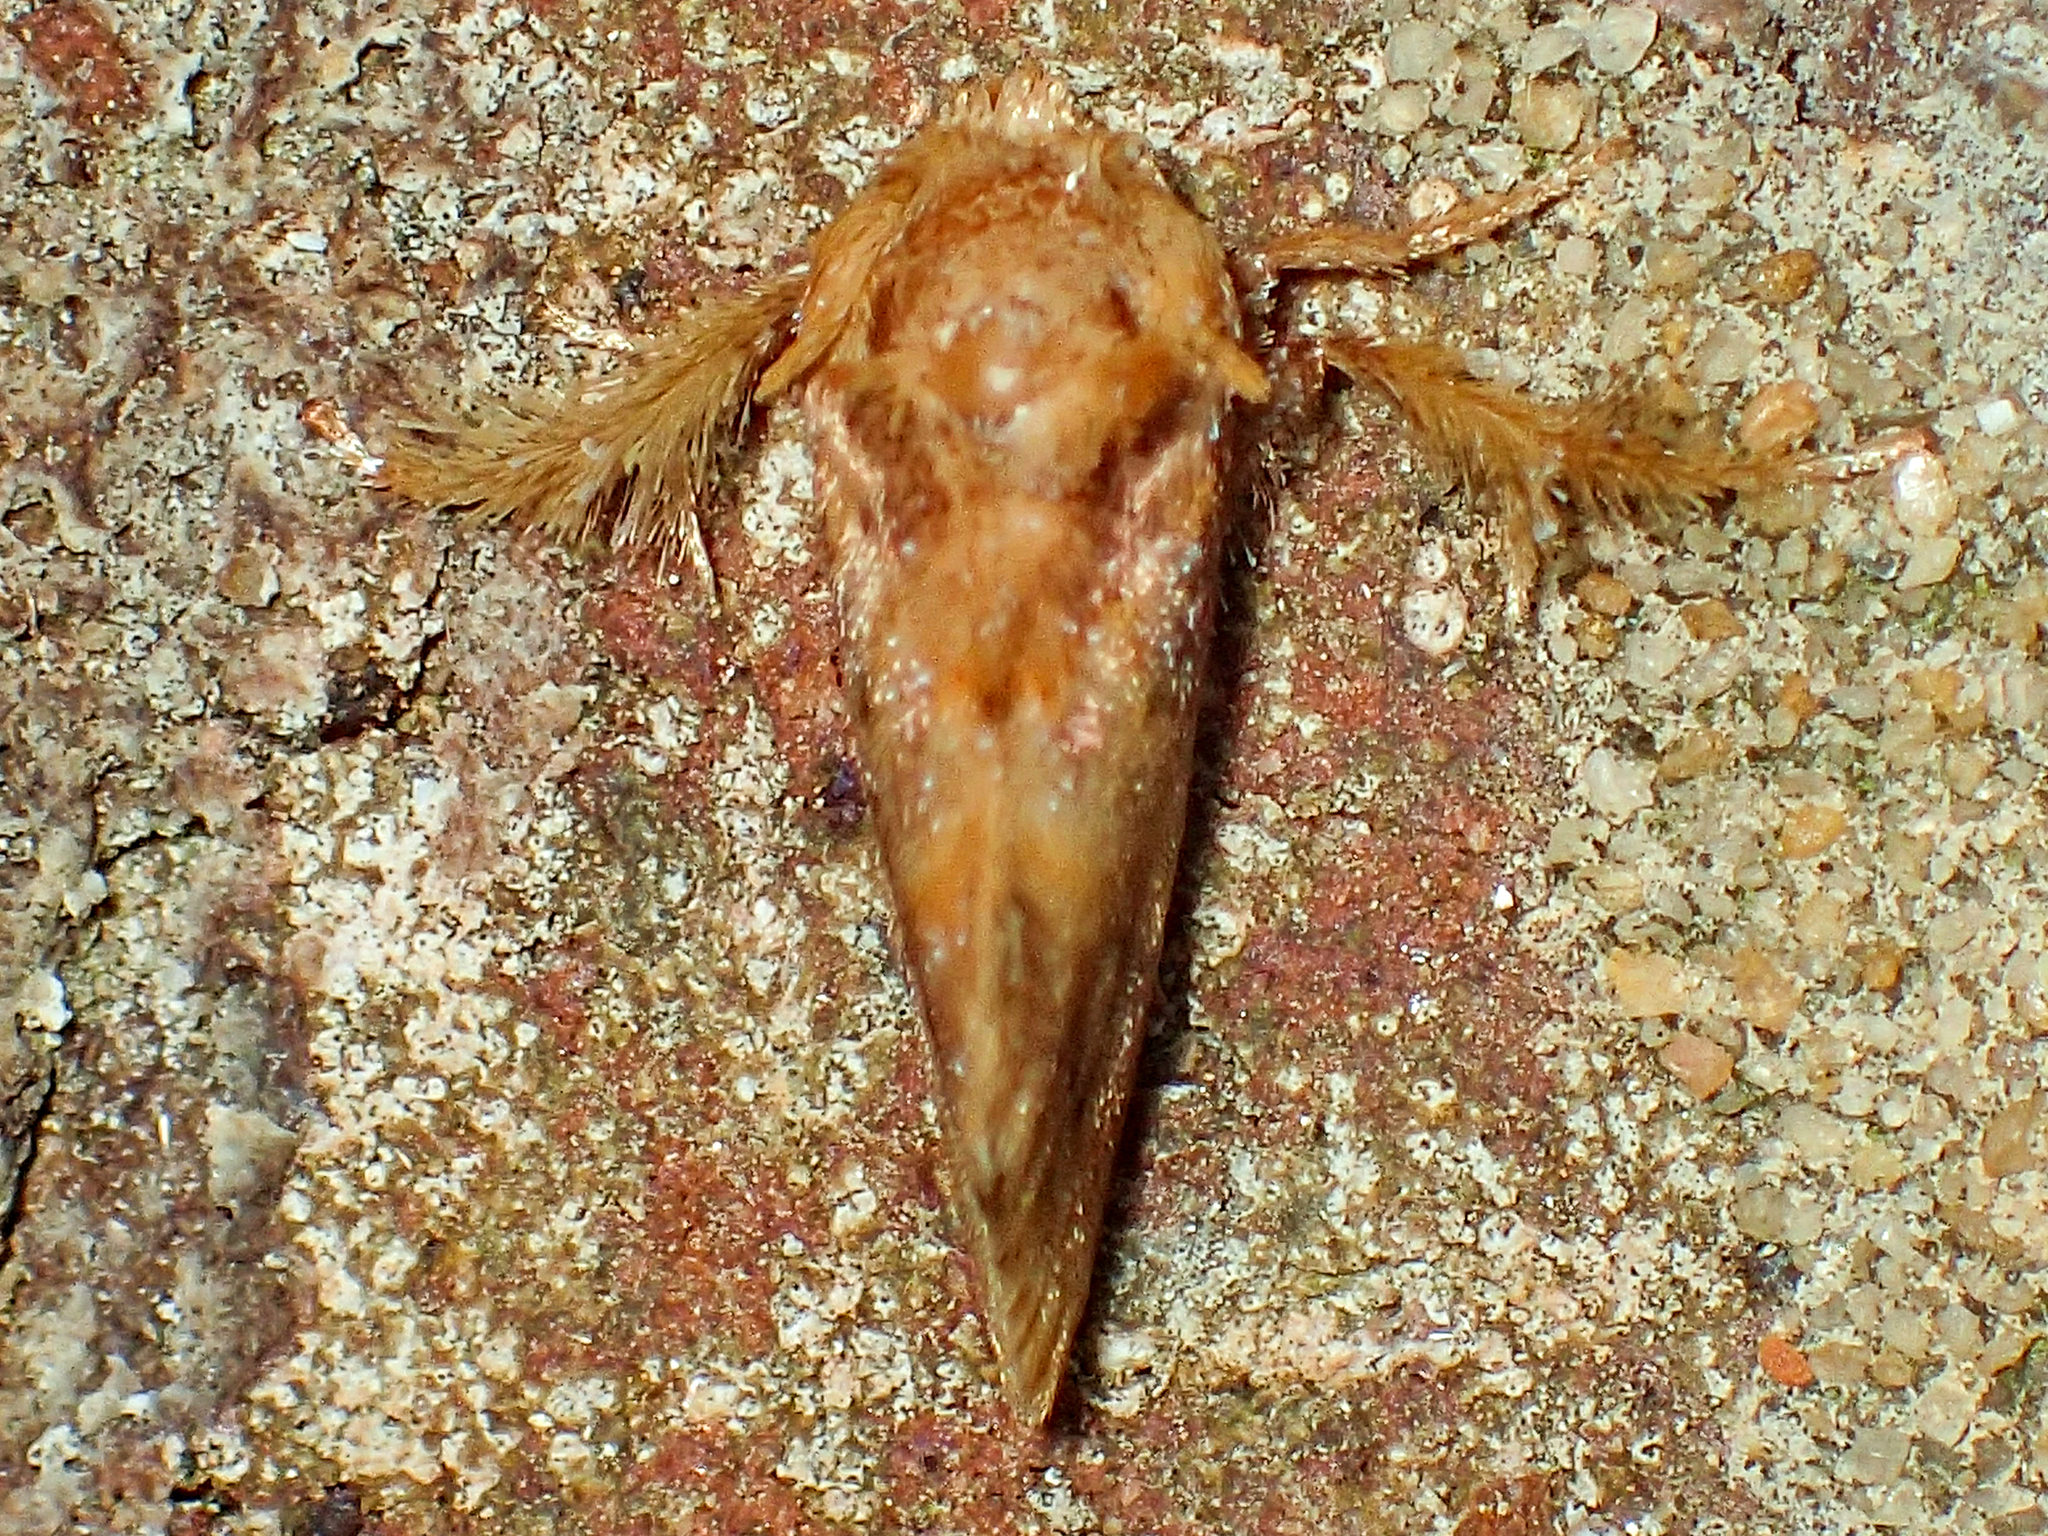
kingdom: Animalia
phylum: Arthropoda
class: Insecta
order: Lepidoptera
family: Limacodidae
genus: Isochaetes
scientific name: Isochaetes beutenmuelleri
